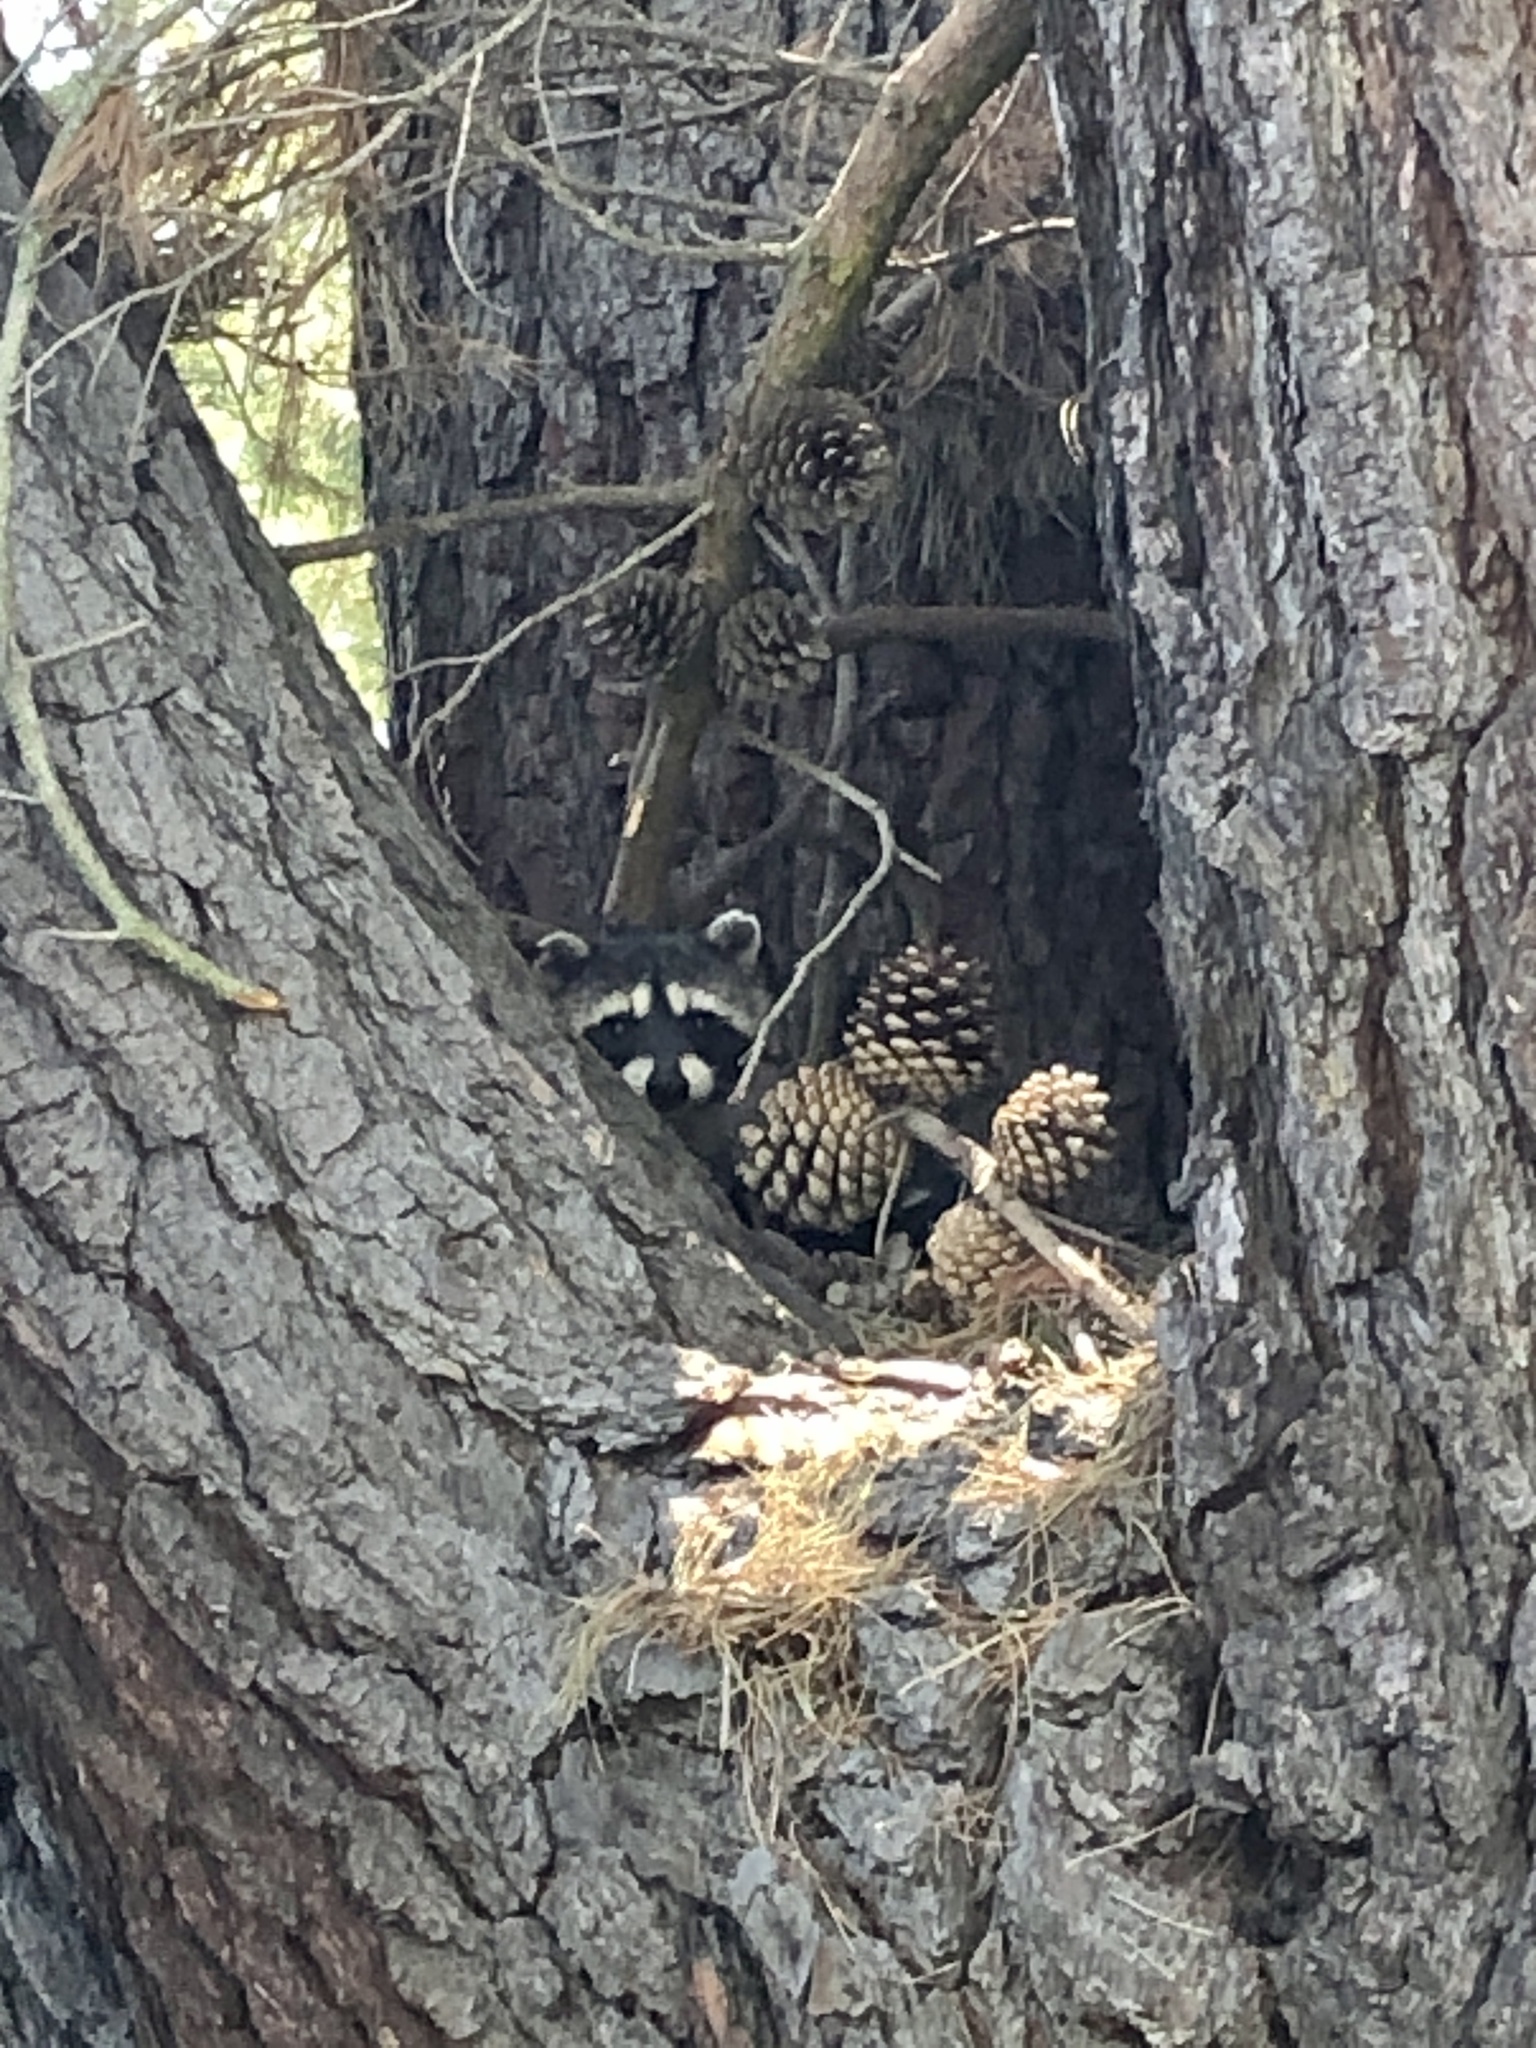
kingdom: Animalia
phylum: Chordata
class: Mammalia
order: Carnivora
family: Procyonidae
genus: Procyon
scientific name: Procyon lotor
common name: Raccoon
